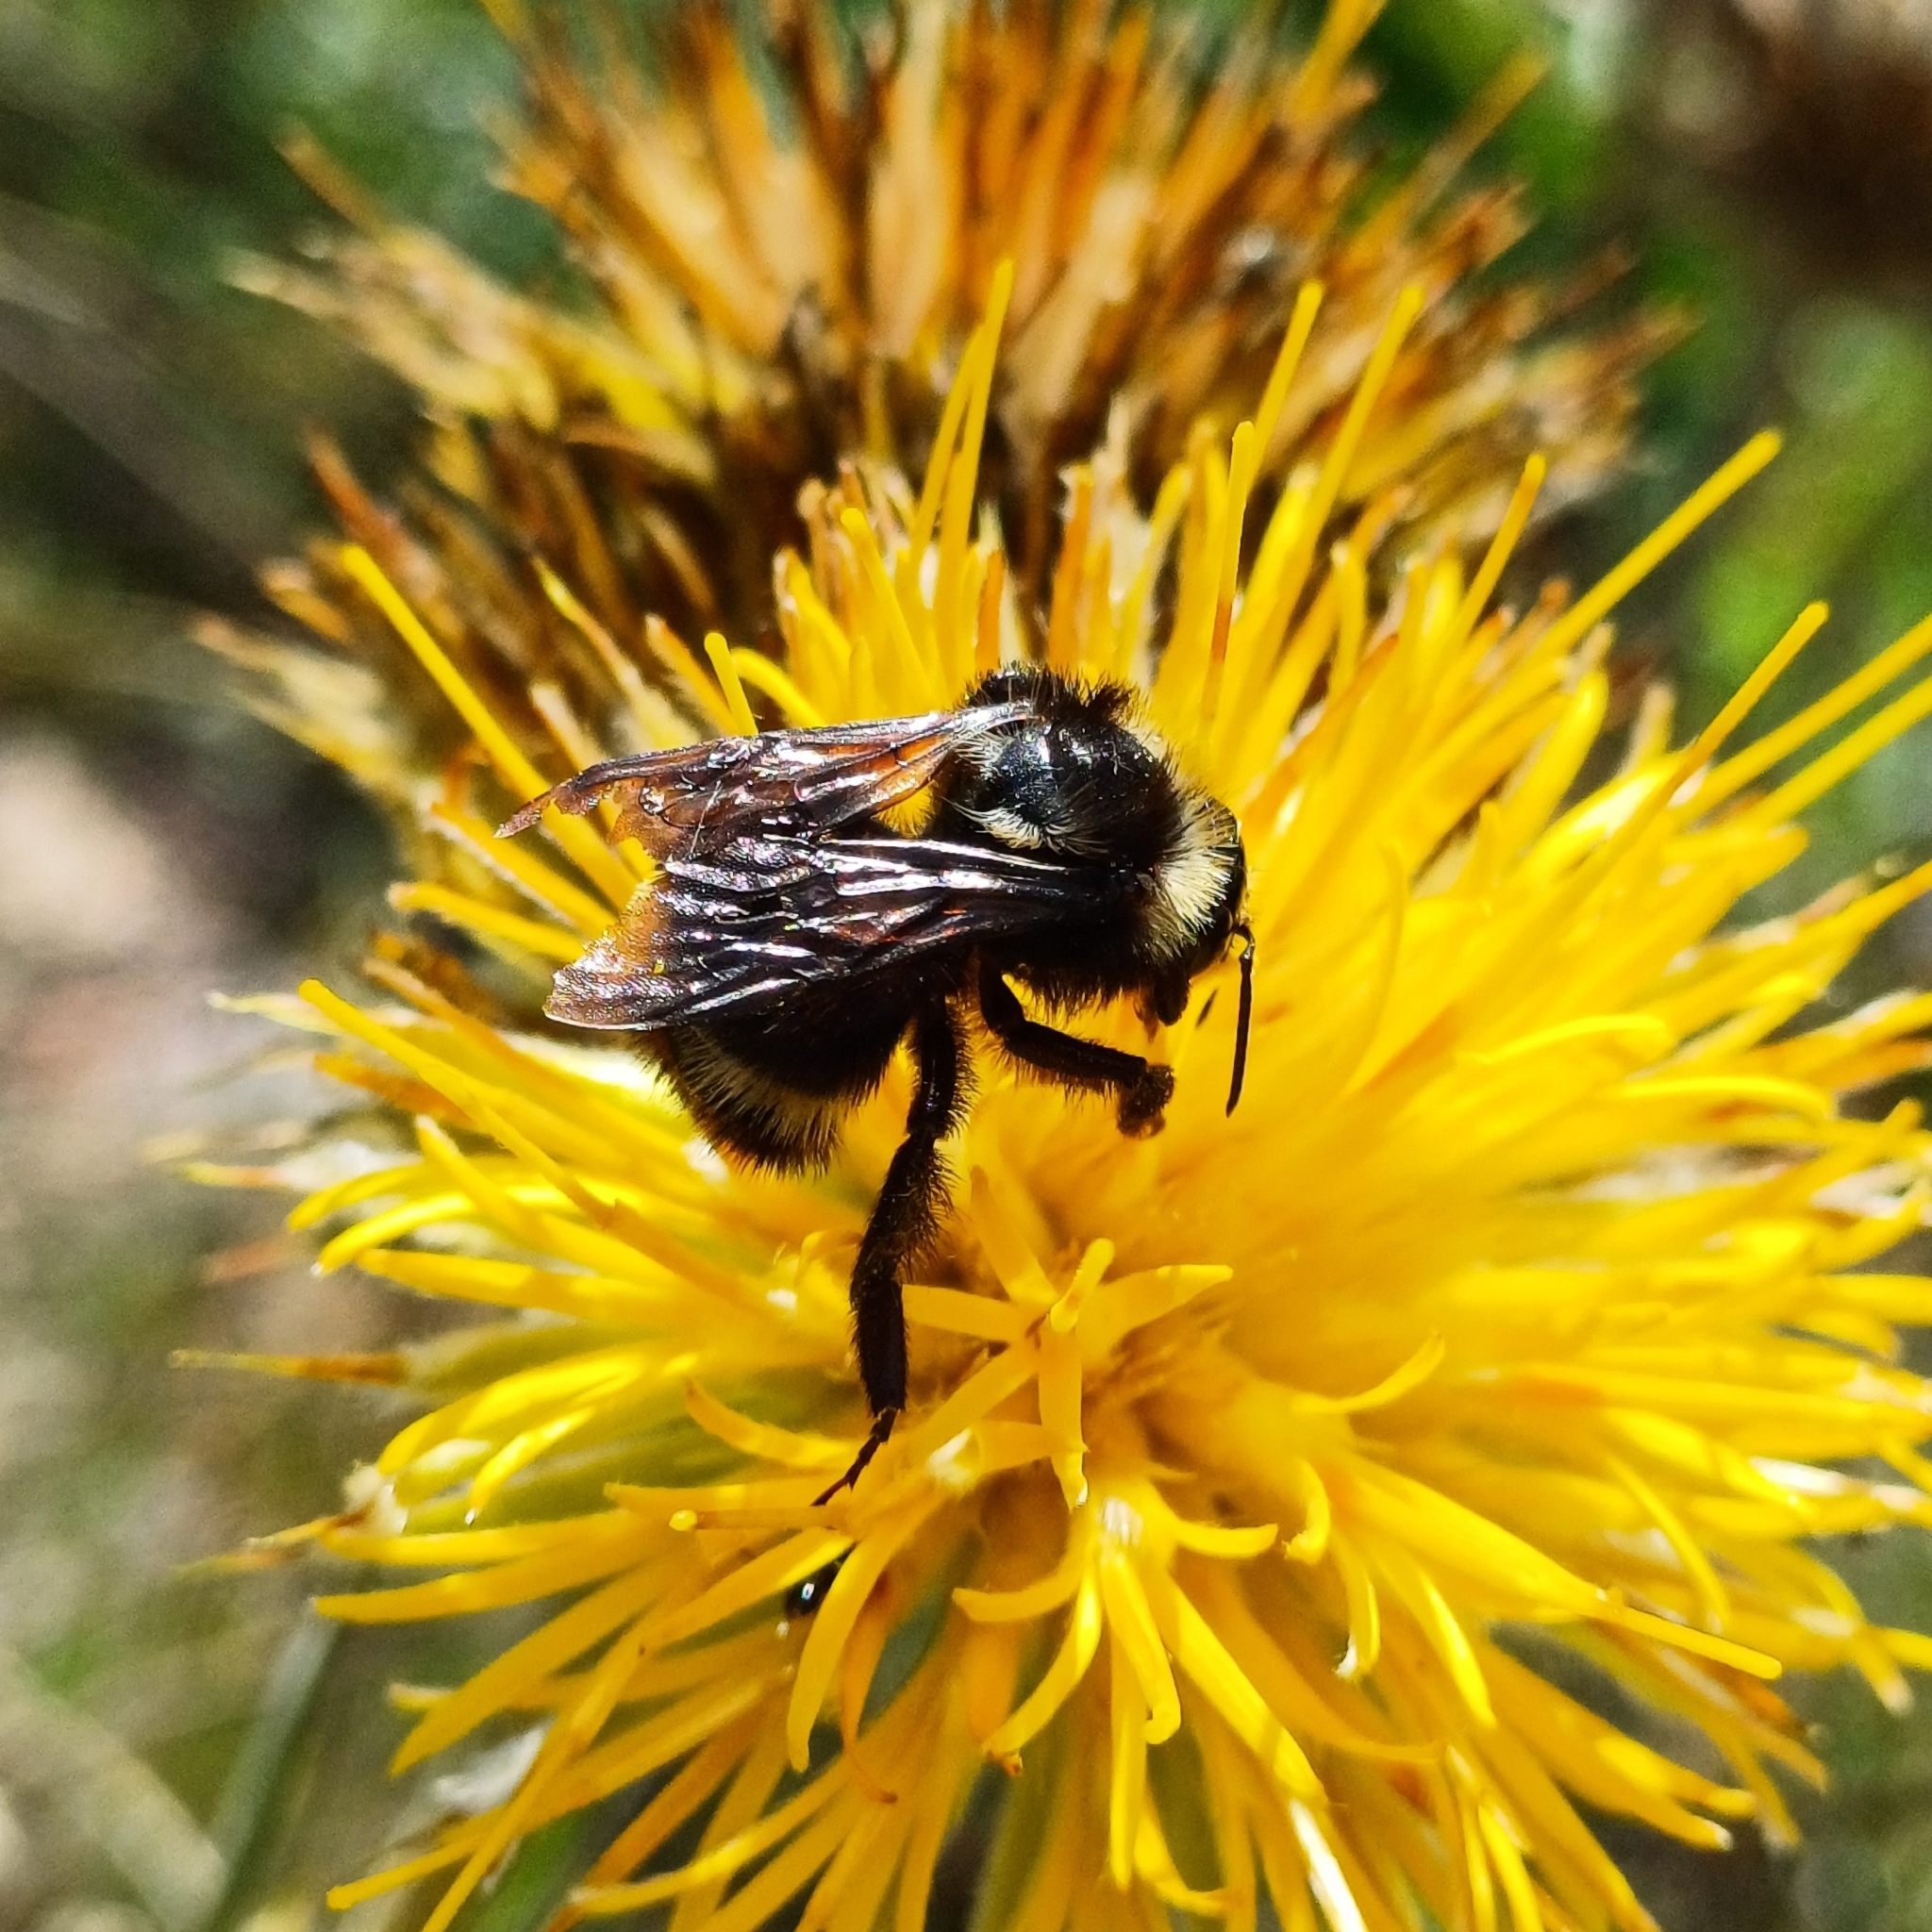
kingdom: Animalia
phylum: Arthropoda
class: Insecta
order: Hymenoptera
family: Apidae
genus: Bombus
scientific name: Bombus pauloensis
